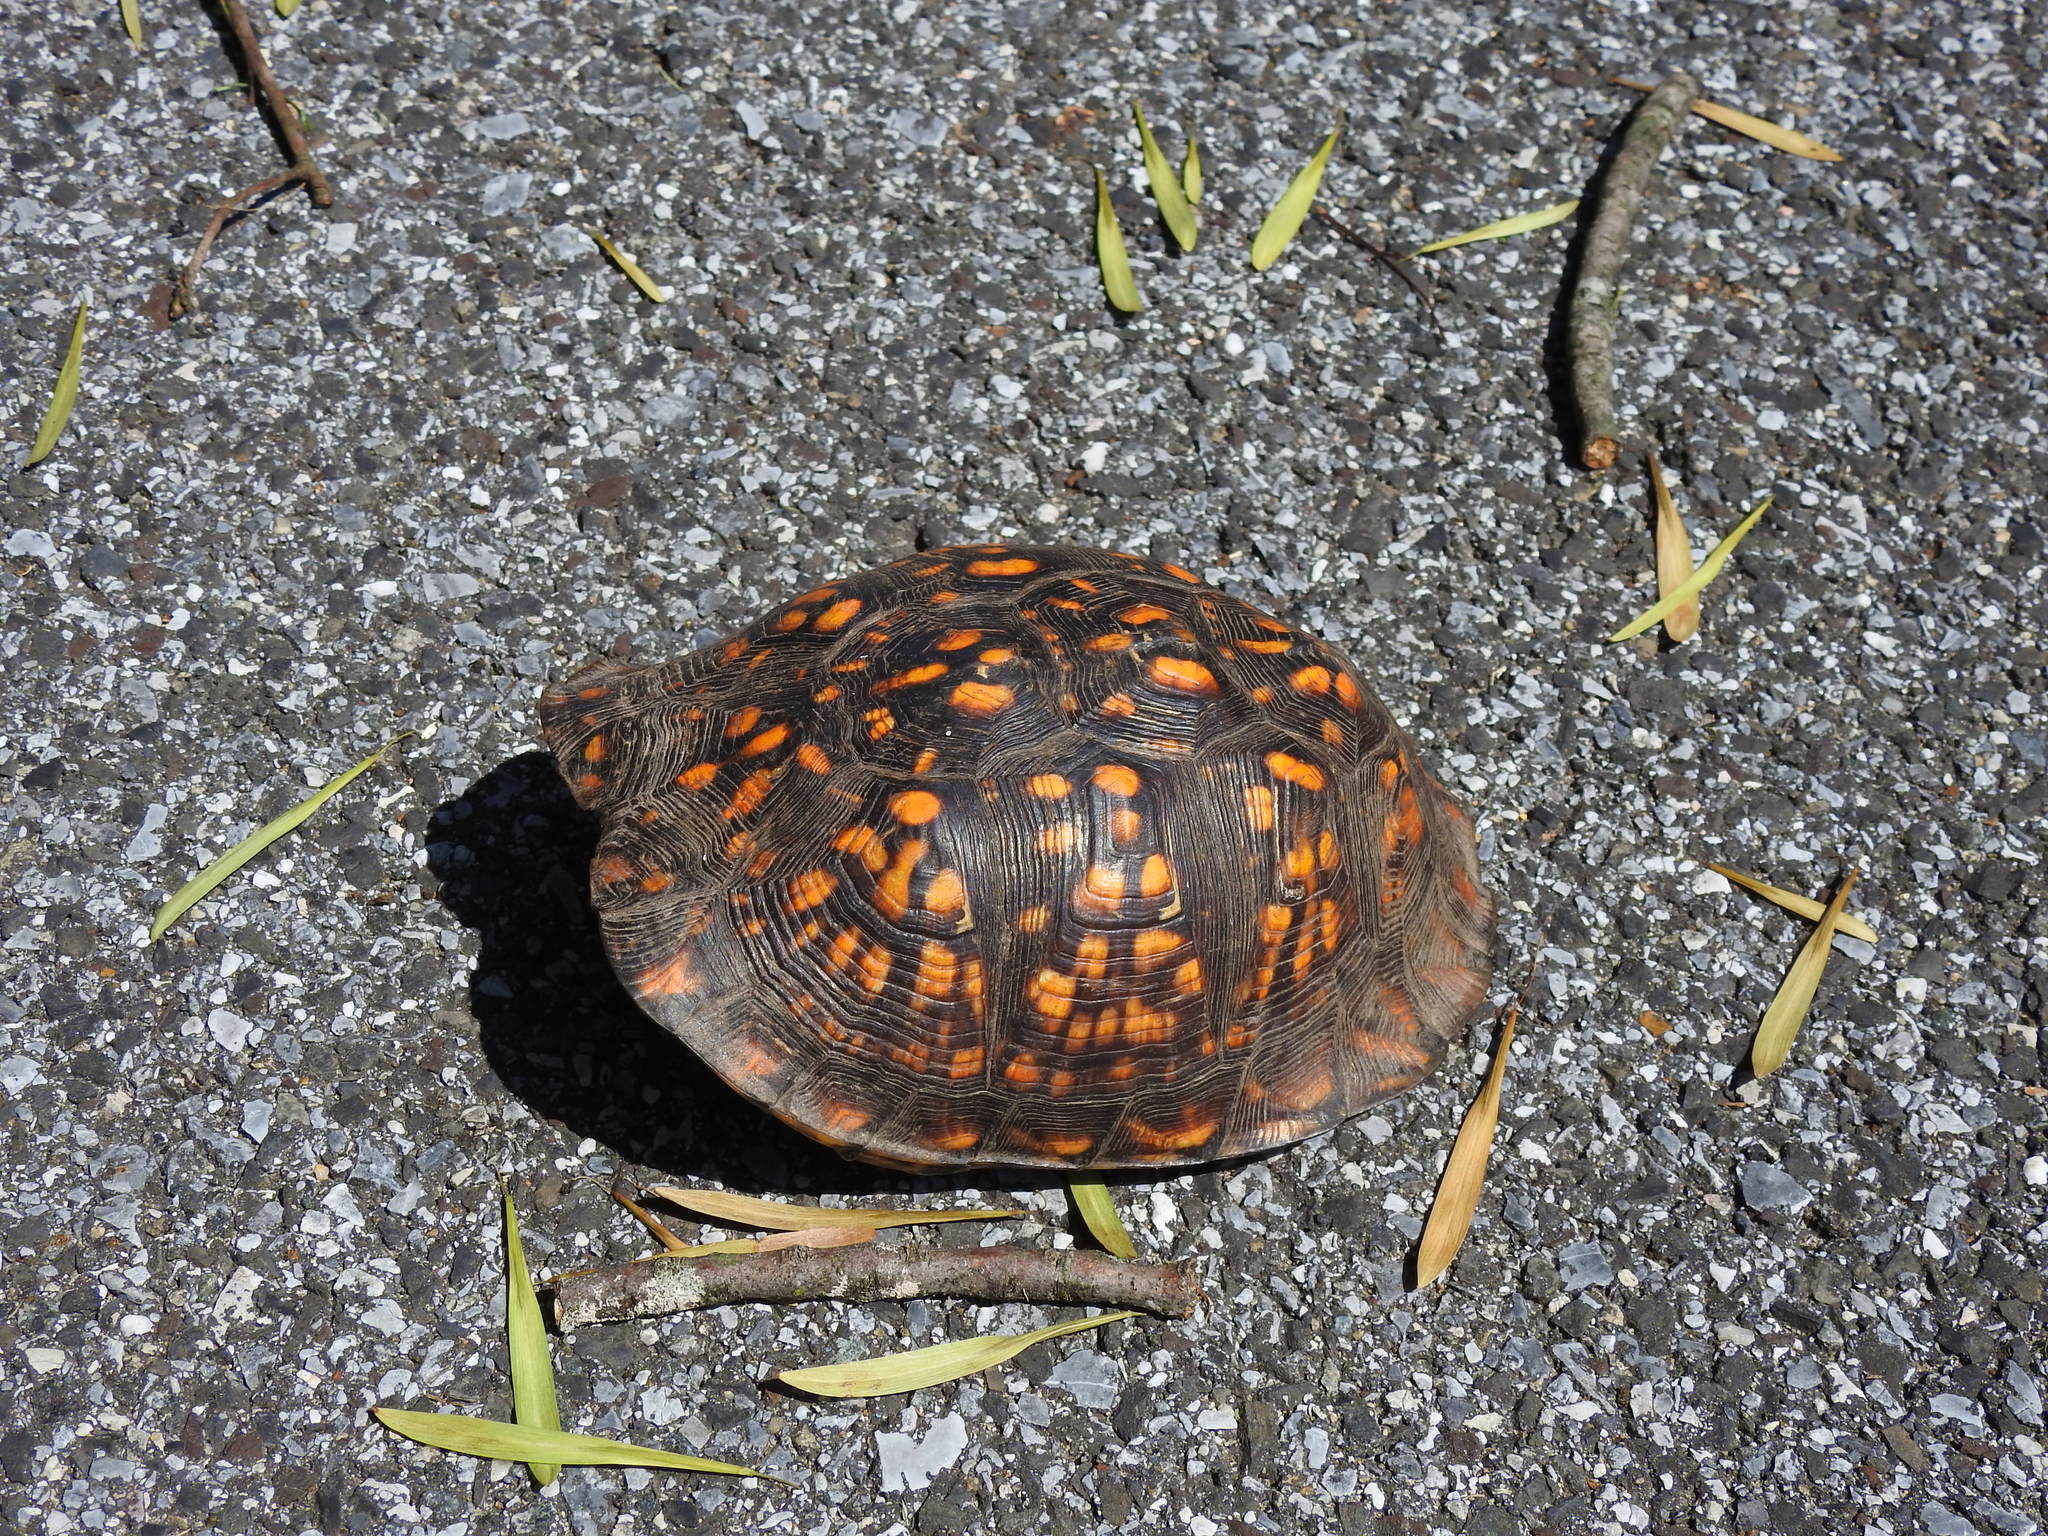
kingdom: Animalia
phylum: Chordata
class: Testudines
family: Emydidae
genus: Terrapene
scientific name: Terrapene carolina
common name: Common box turtle
